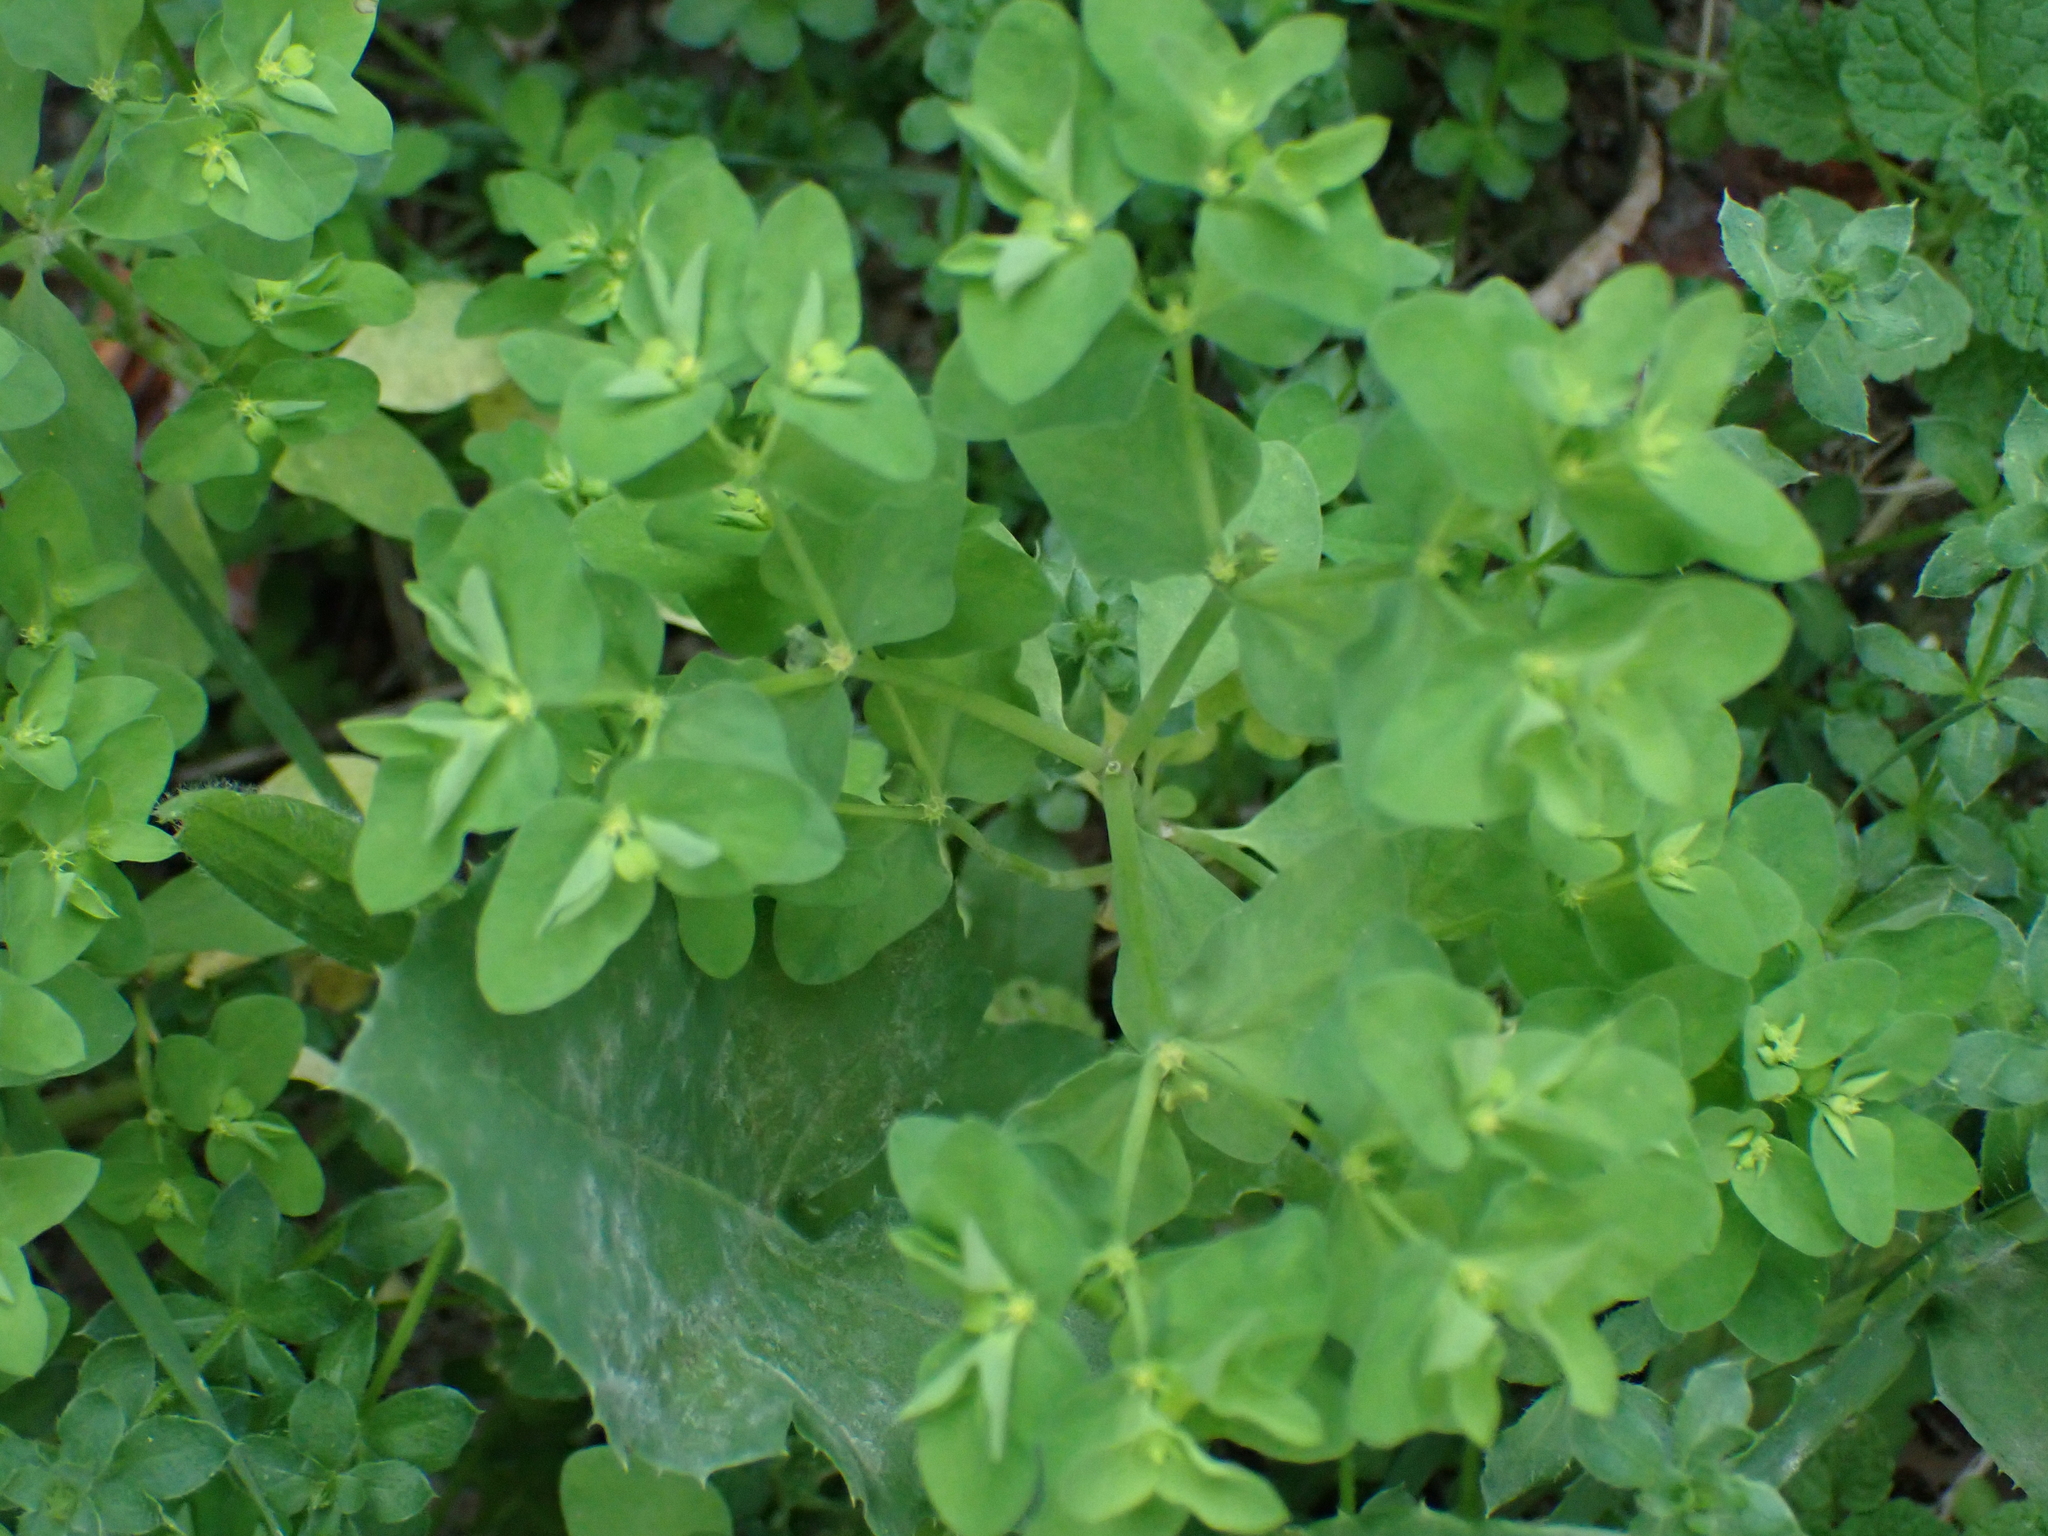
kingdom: Plantae
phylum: Tracheophyta
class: Magnoliopsida
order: Malpighiales
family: Euphorbiaceae
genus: Euphorbia
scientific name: Euphorbia peplus
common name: Petty spurge
